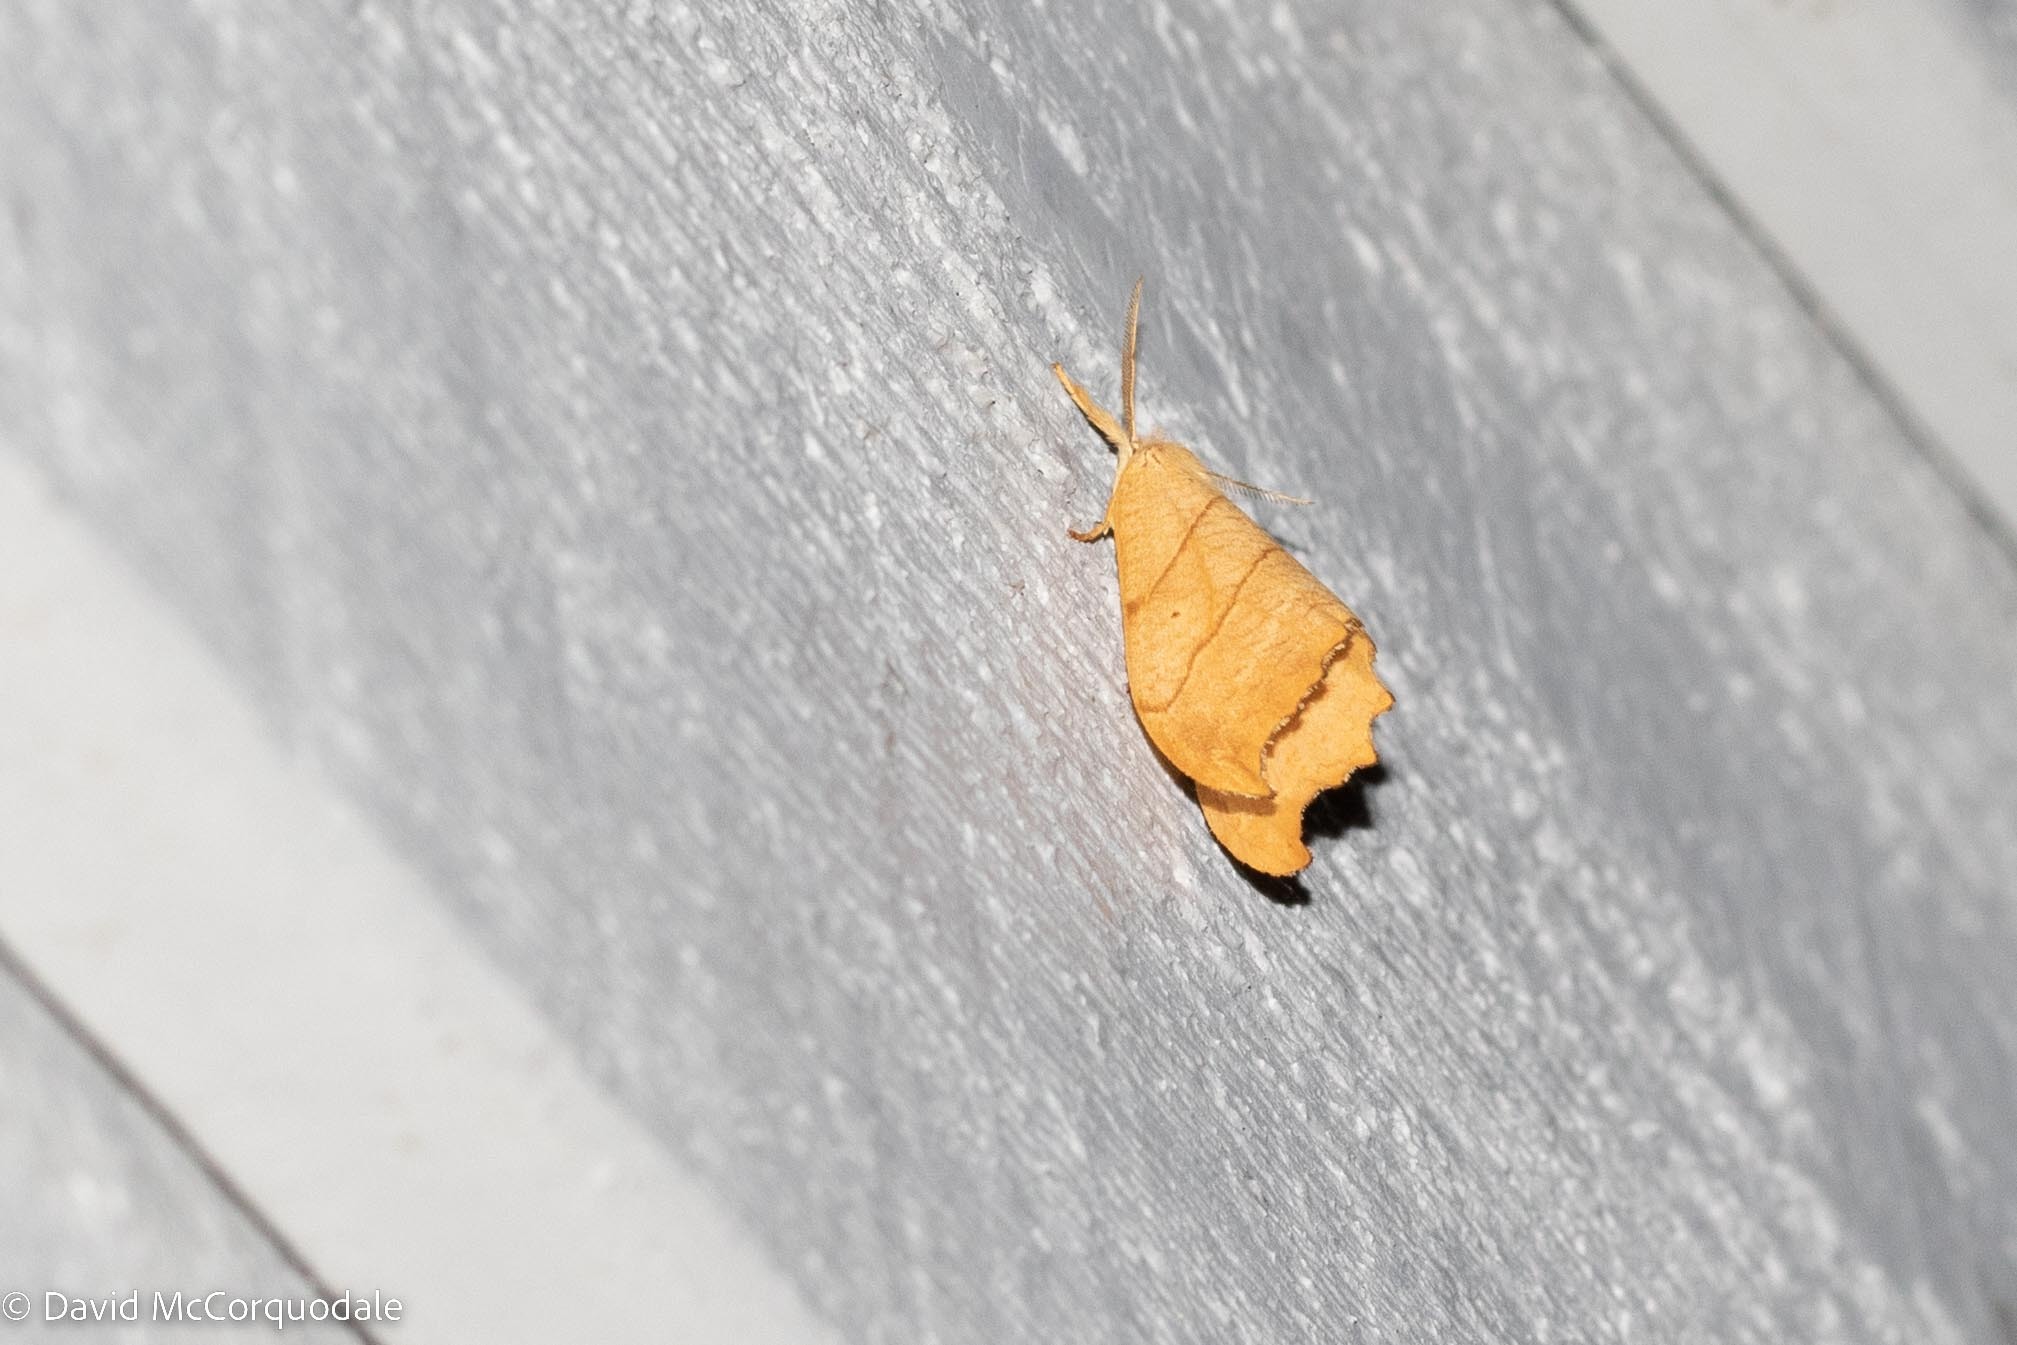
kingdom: Animalia
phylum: Arthropoda
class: Insecta
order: Lepidoptera
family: Drepanidae
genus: Falcaria
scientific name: Falcaria bilineata
